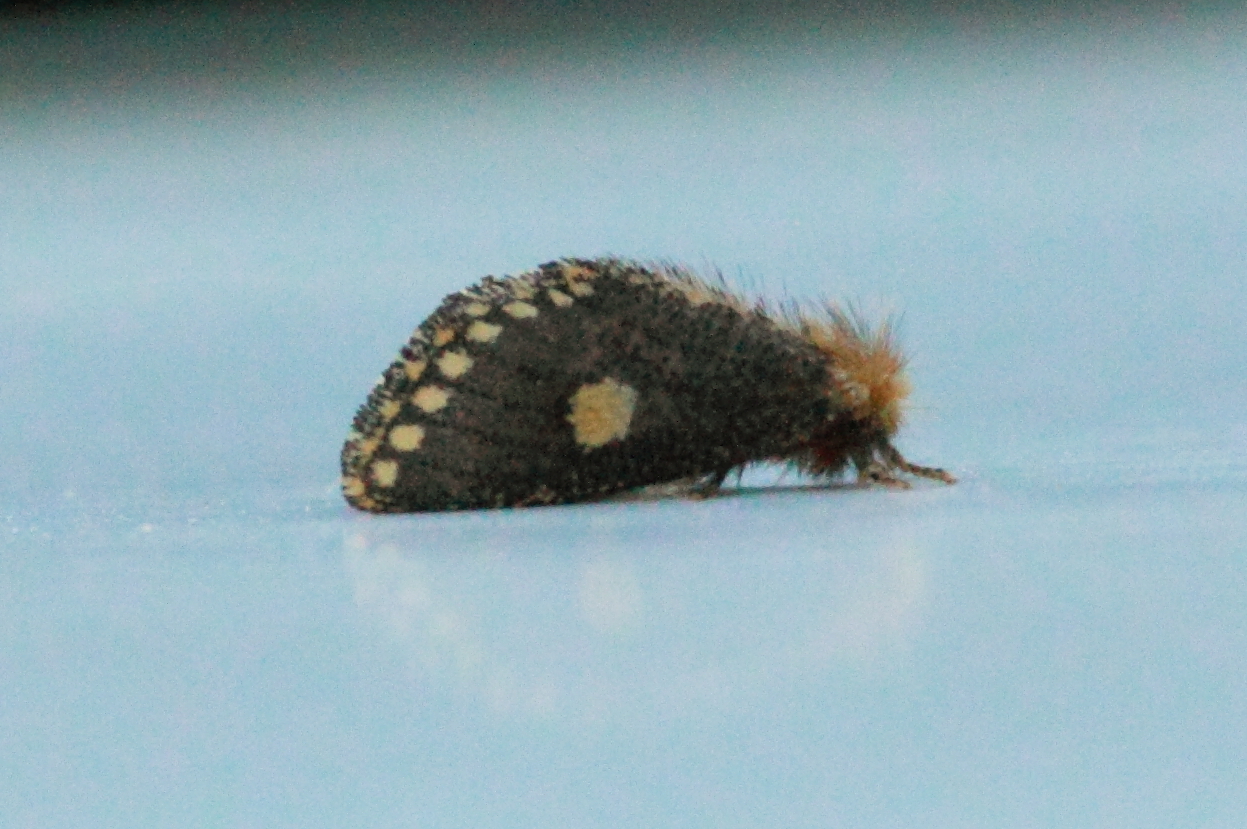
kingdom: Animalia
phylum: Arthropoda
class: Insecta
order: Lepidoptera
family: Notodontidae
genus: Epicoma
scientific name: Epicoma protrahens
